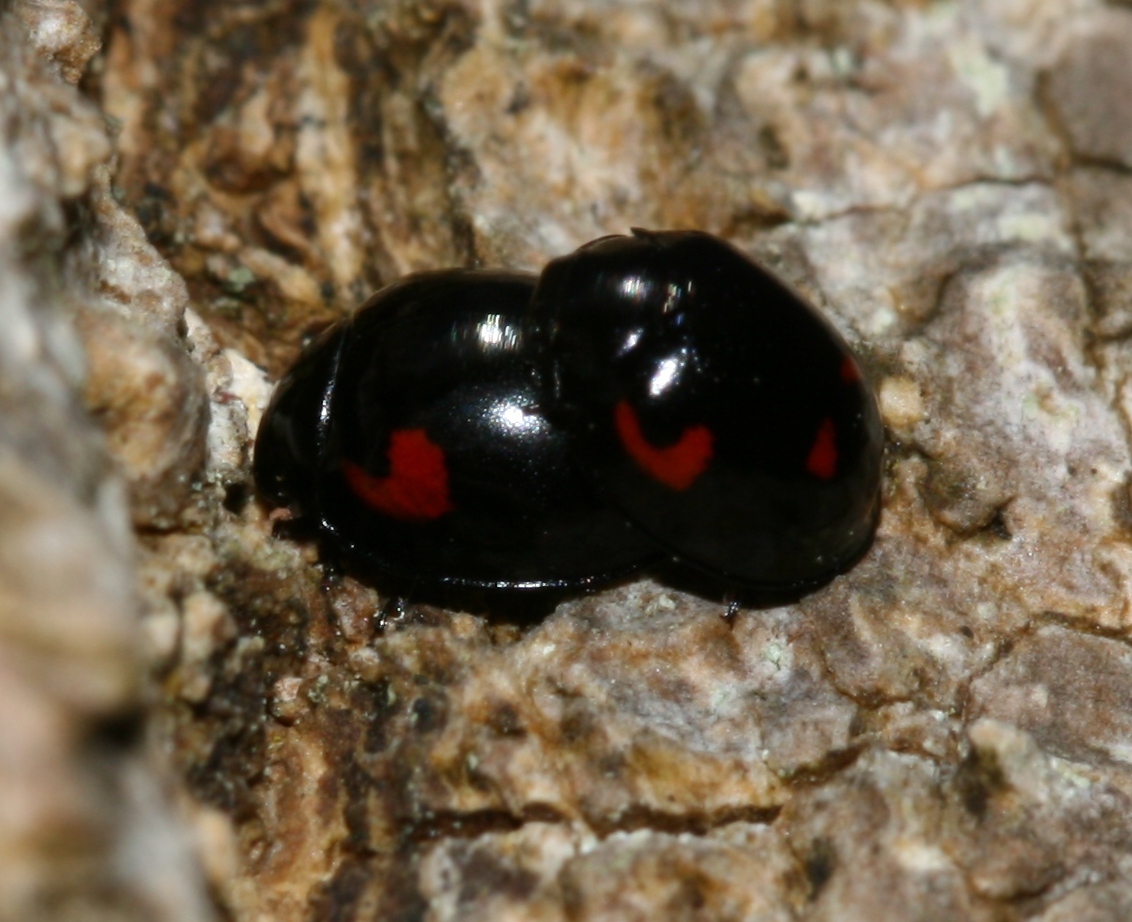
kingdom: Animalia
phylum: Arthropoda
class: Insecta
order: Coleoptera
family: Coccinellidae
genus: Brumus
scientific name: Brumus quadripustulatus
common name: Ladybird beetle
